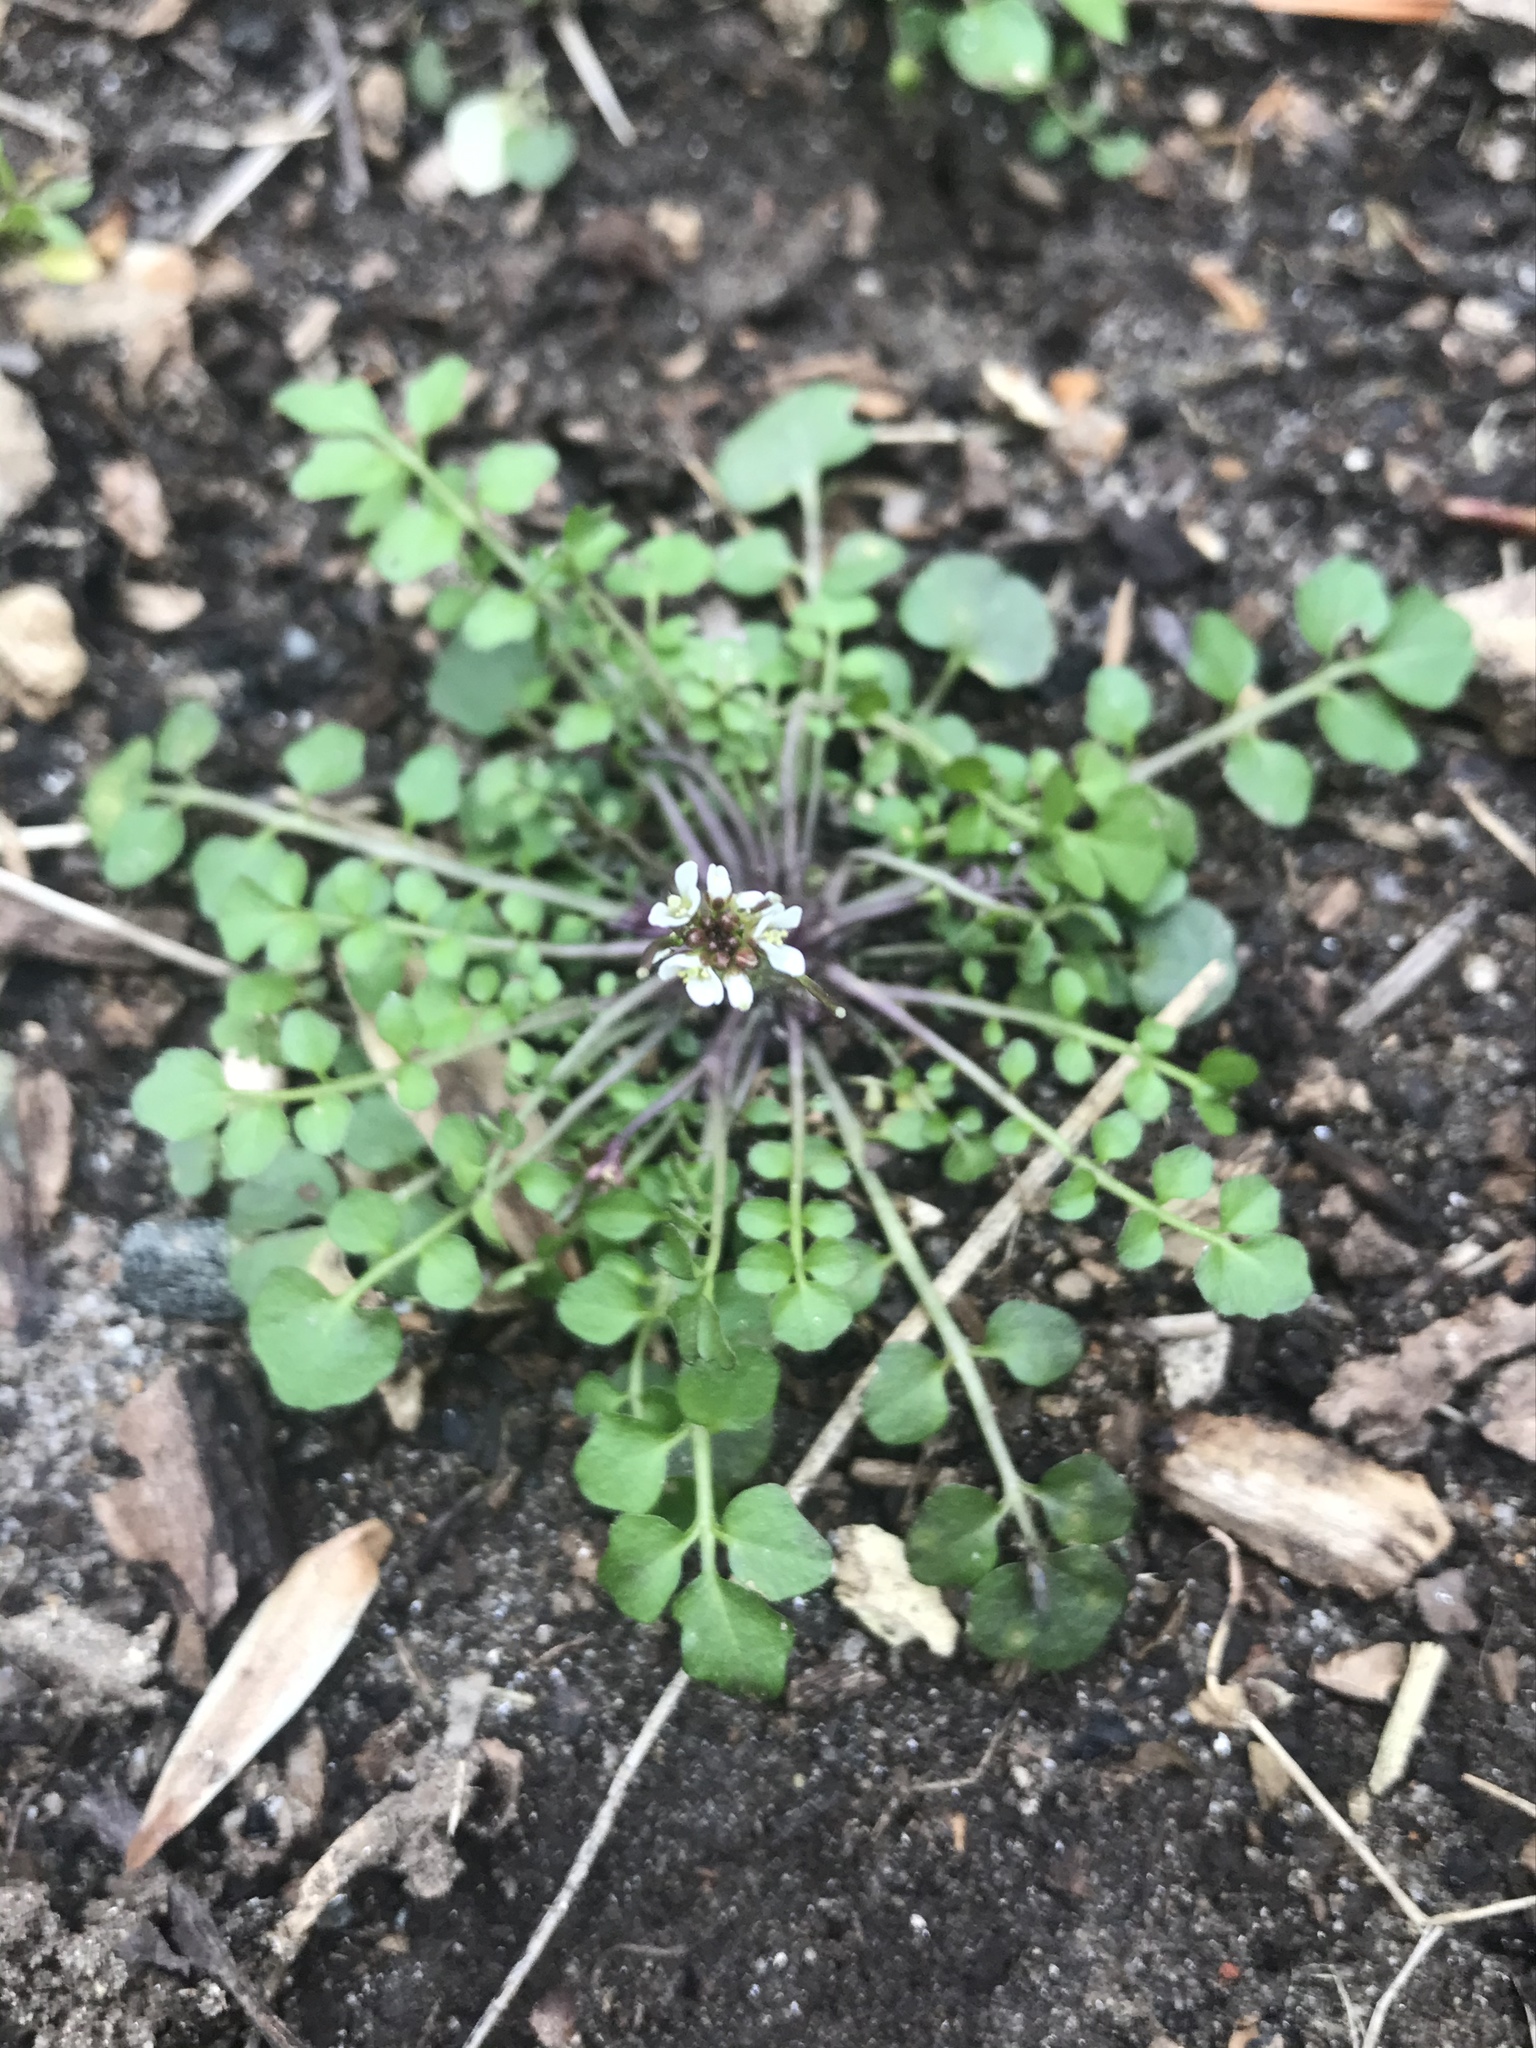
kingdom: Plantae
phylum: Tracheophyta
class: Magnoliopsida
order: Brassicales
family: Brassicaceae
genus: Cardamine
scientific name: Cardamine hirsuta
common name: Hairy bittercress
